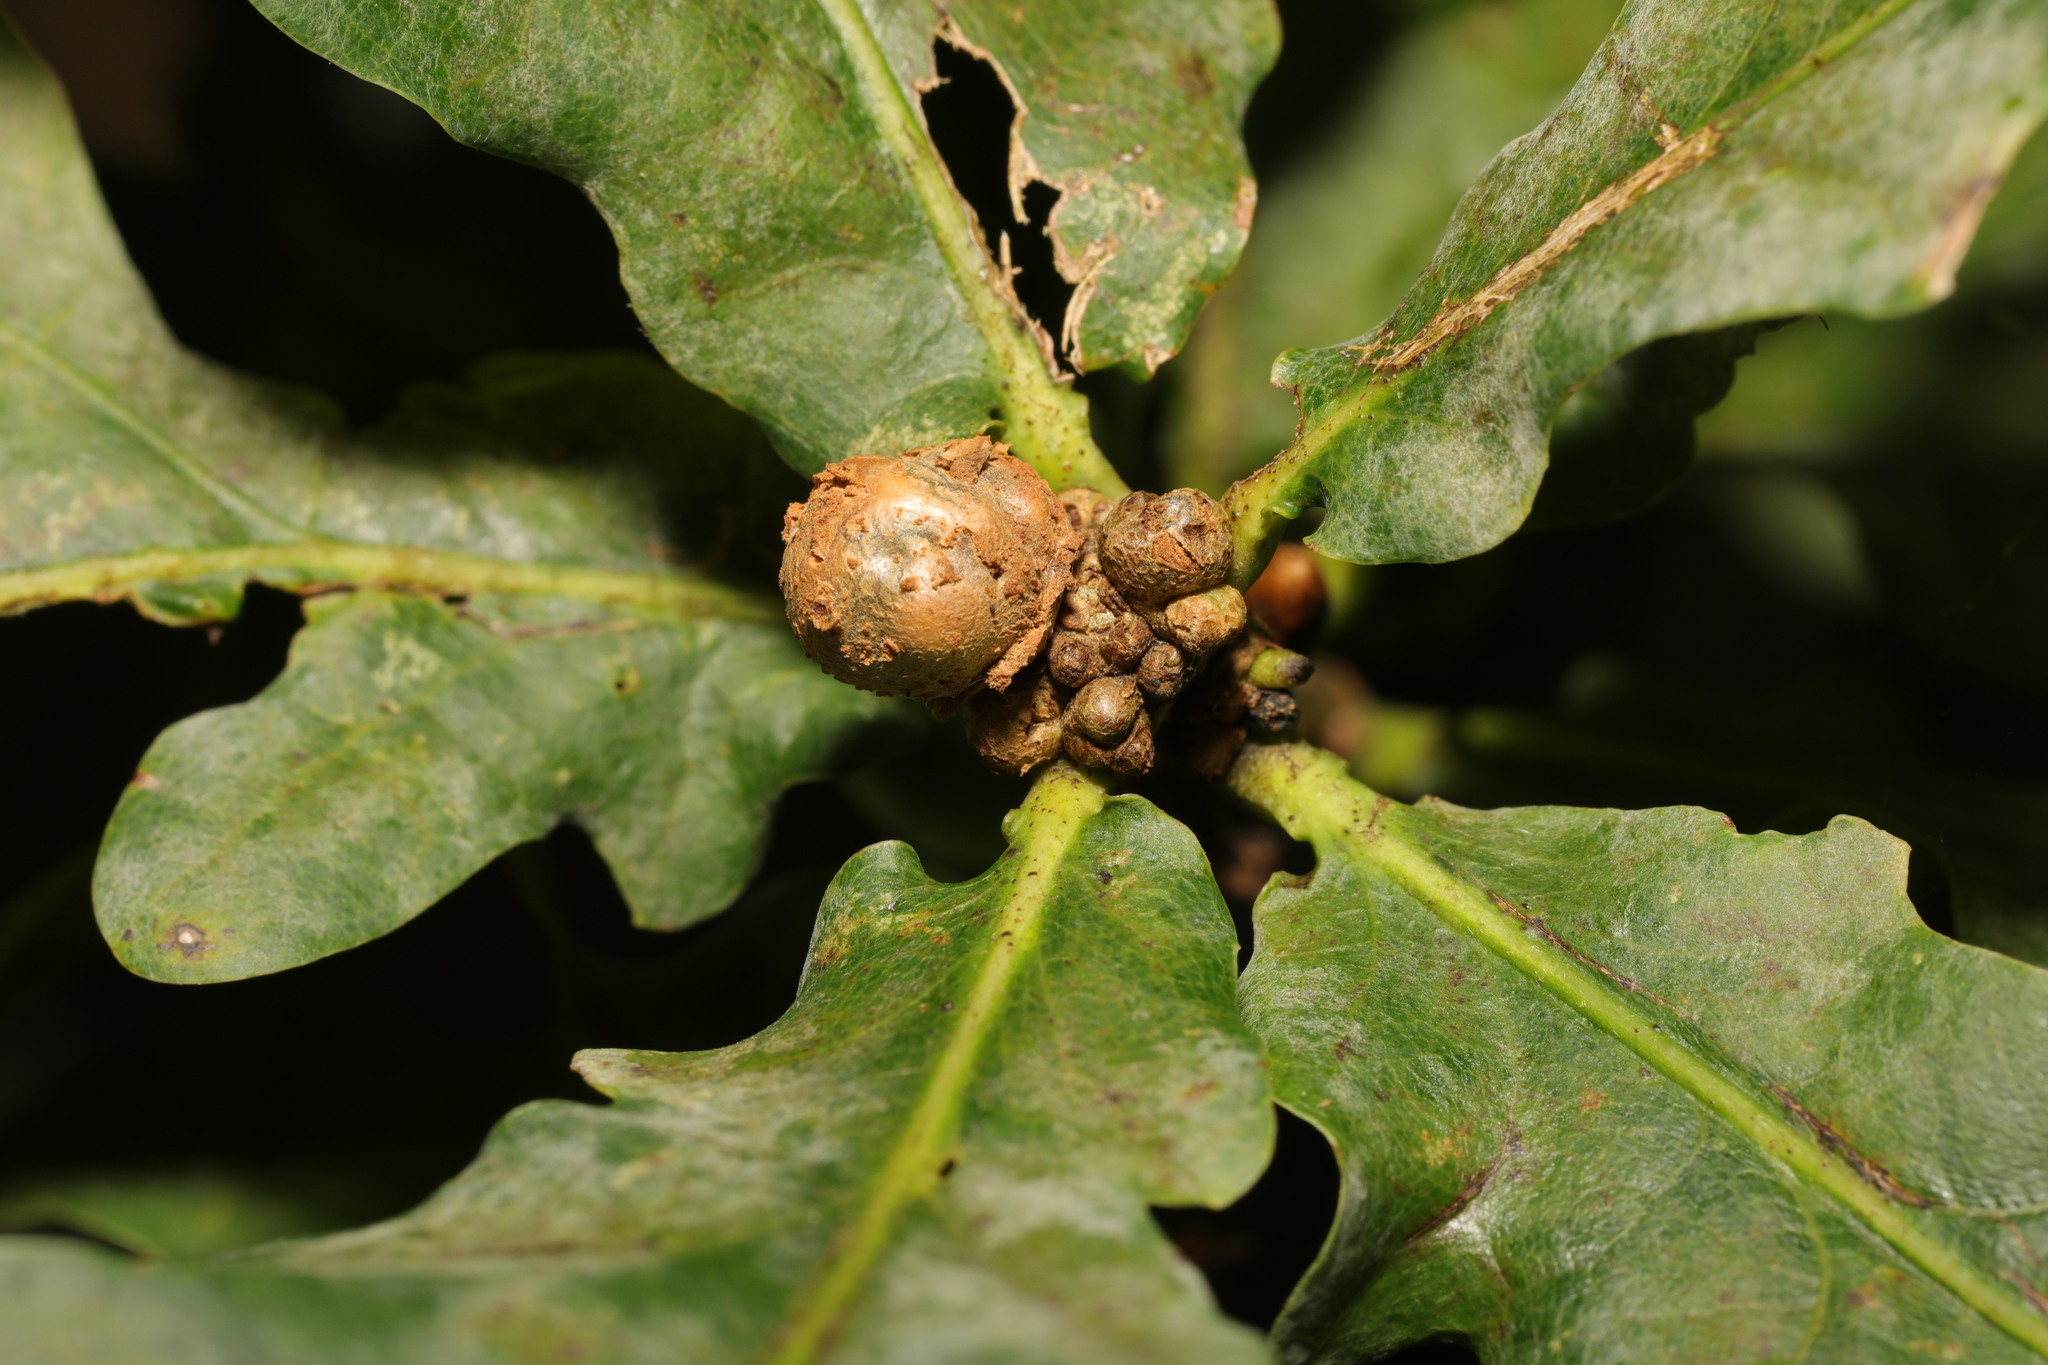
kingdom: Animalia
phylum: Arthropoda
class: Insecta
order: Hymenoptera
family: Cynipidae
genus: Andricus
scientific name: Andricus lignicolus
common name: Cola-nut gall
